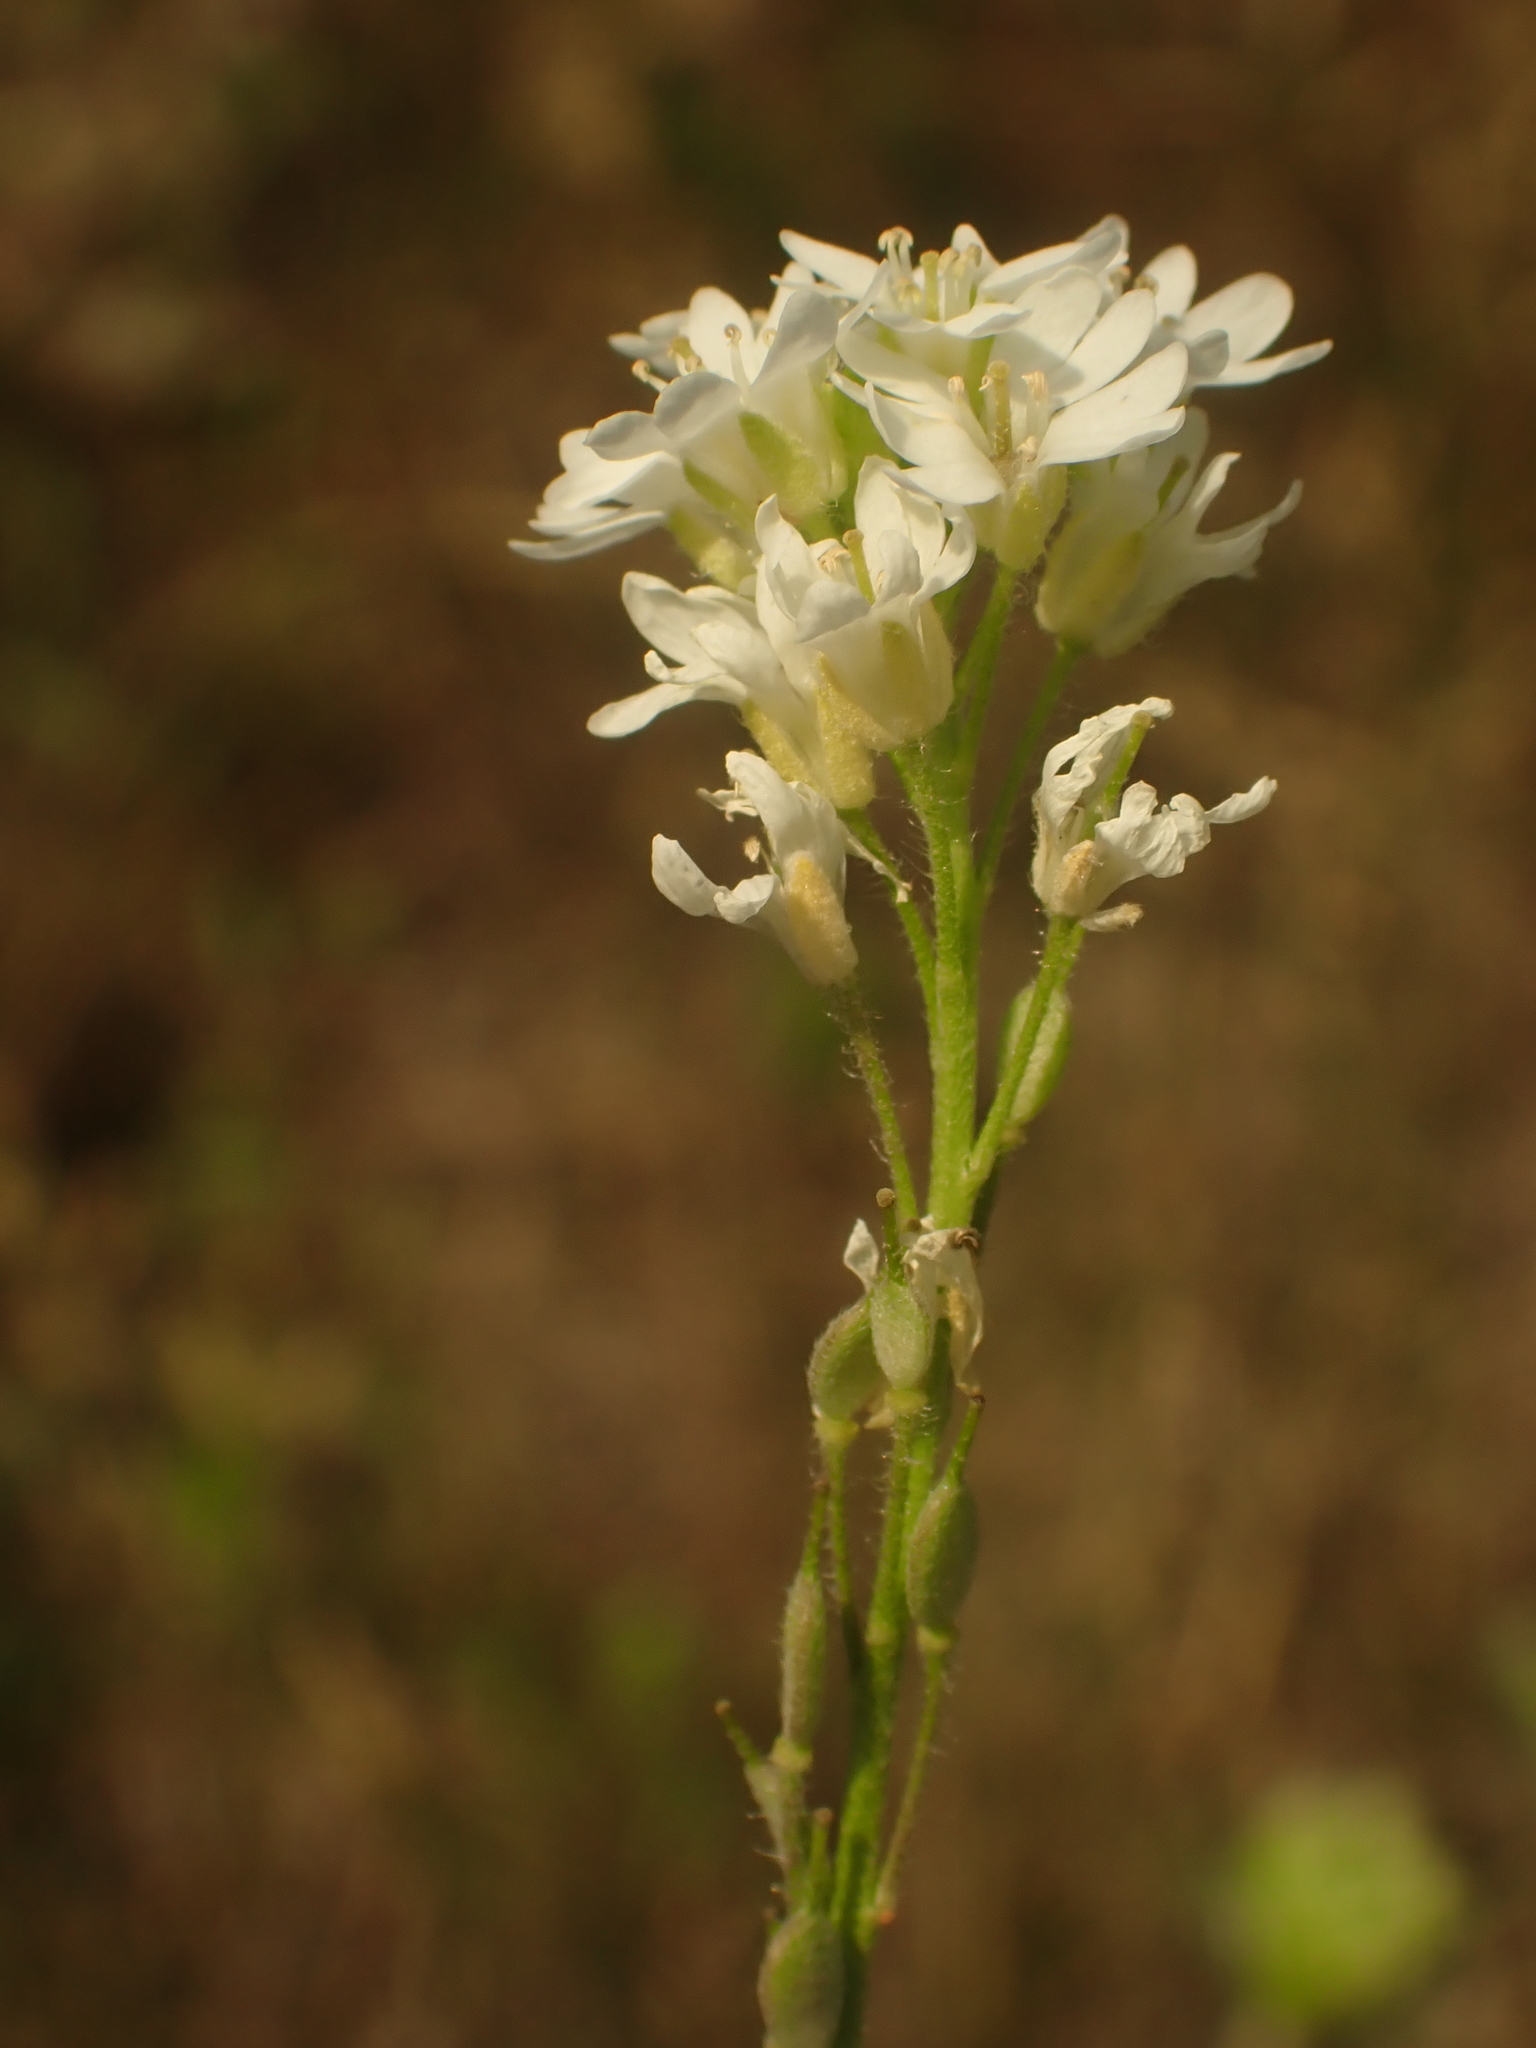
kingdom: Plantae
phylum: Tracheophyta
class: Magnoliopsida
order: Brassicales
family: Brassicaceae
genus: Berteroa
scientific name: Berteroa incana
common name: Hoary alison
